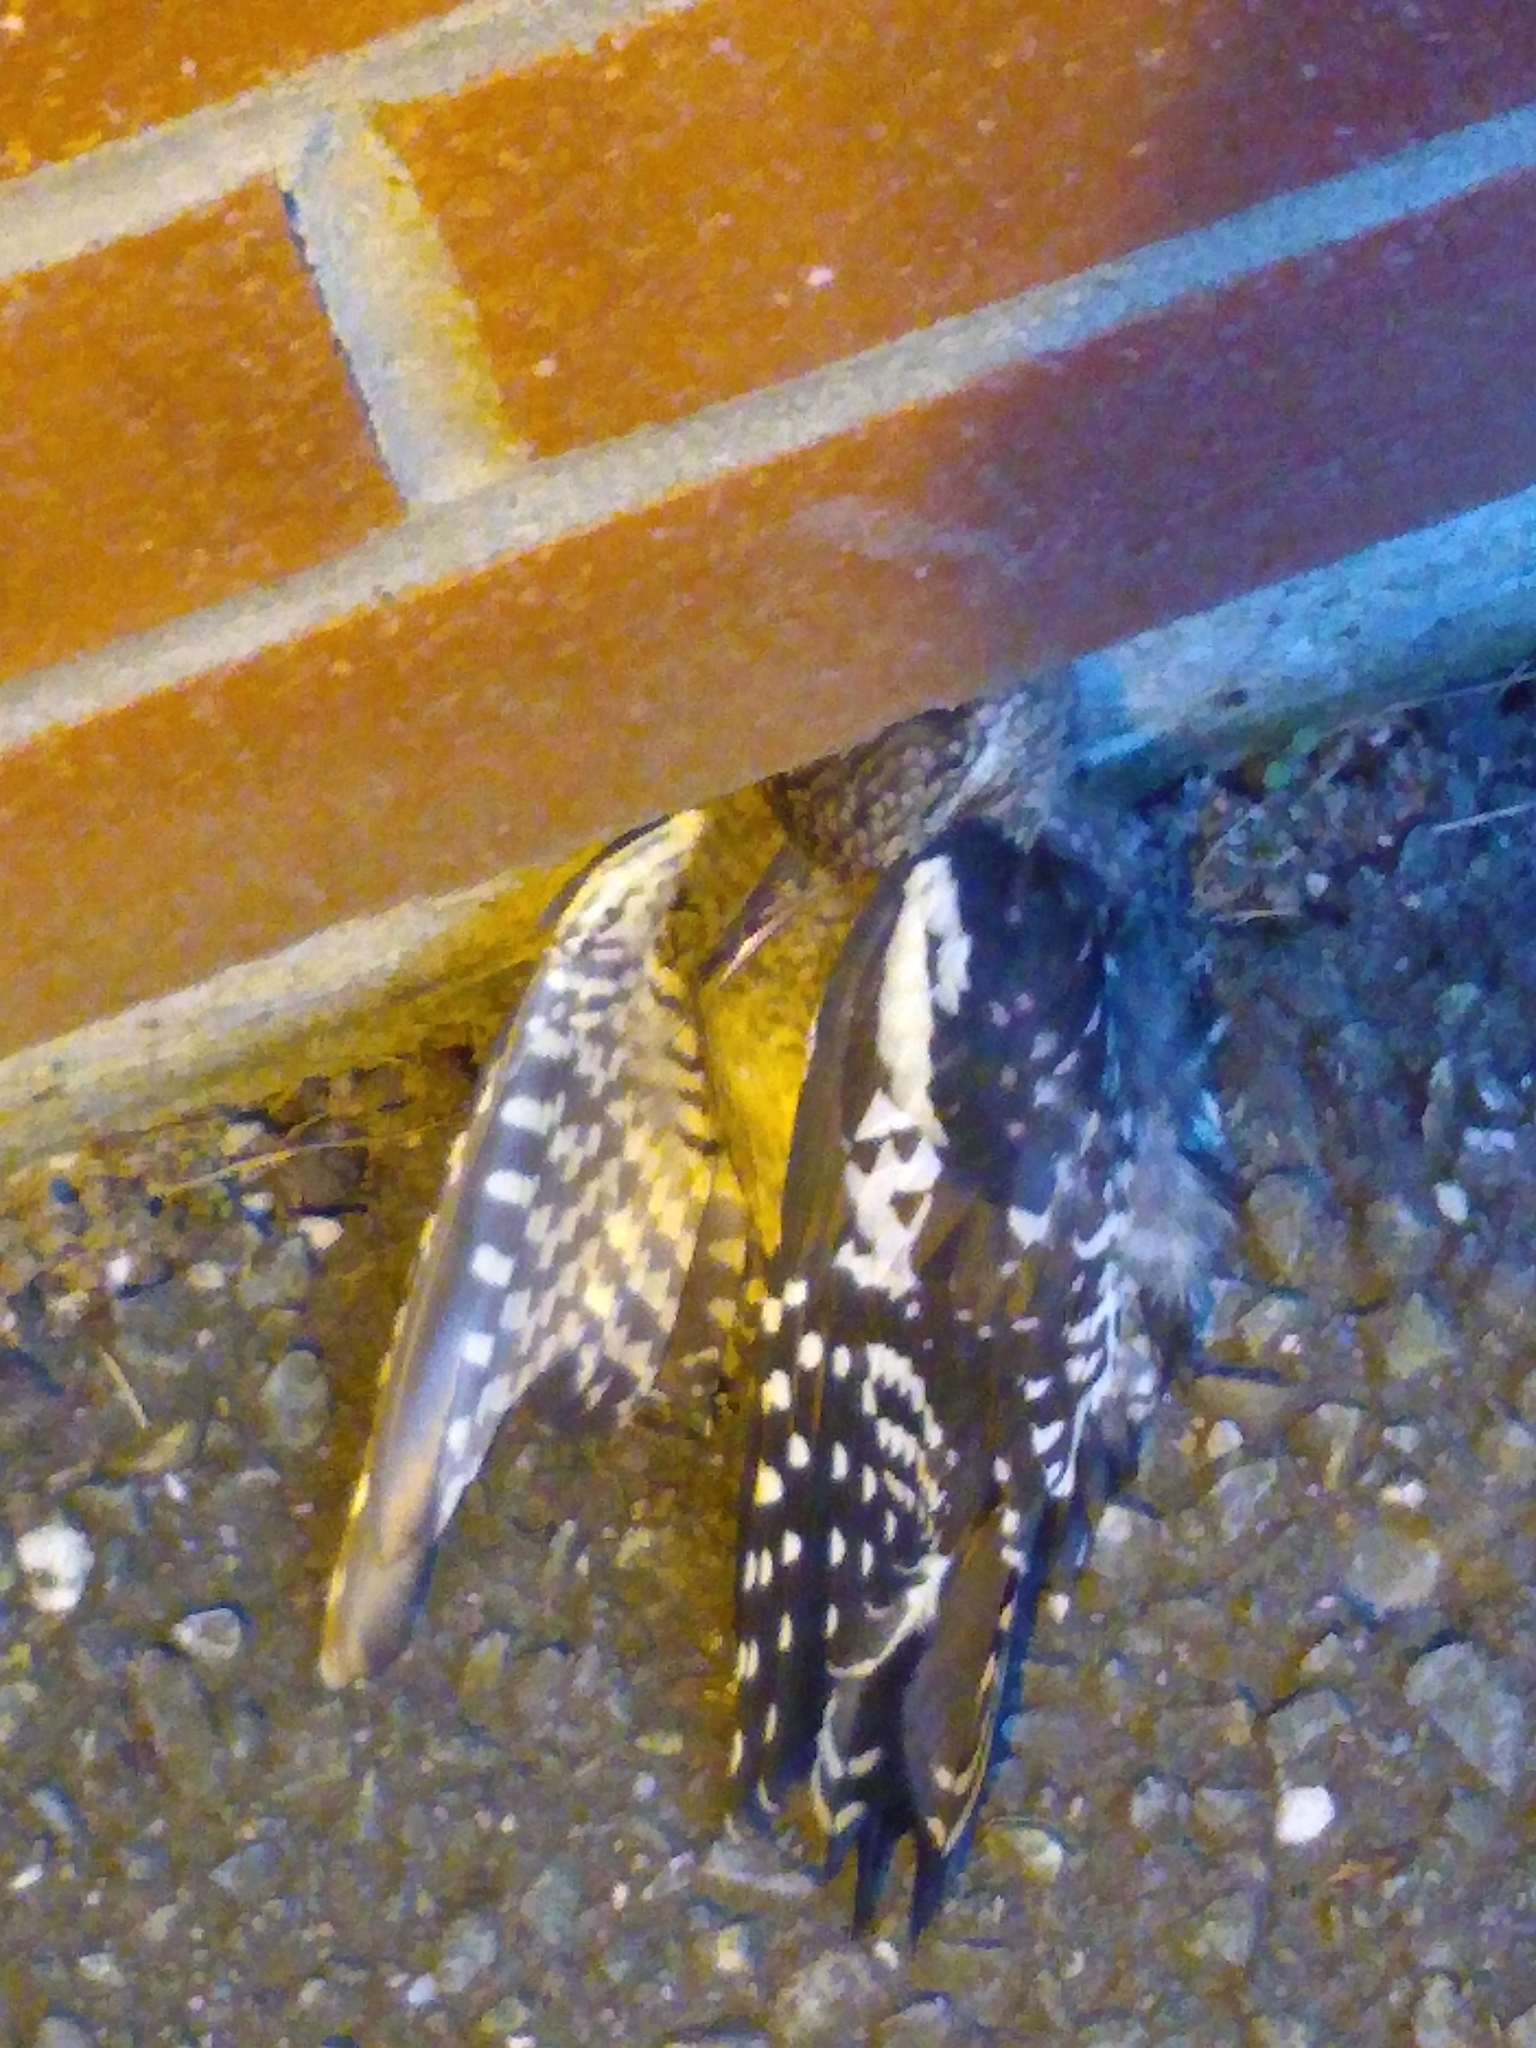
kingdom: Animalia
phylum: Chordata
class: Aves
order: Piciformes
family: Picidae
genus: Sphyrapicus
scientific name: Sphyrapicus varius
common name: Yellow-bellied sapsucker
